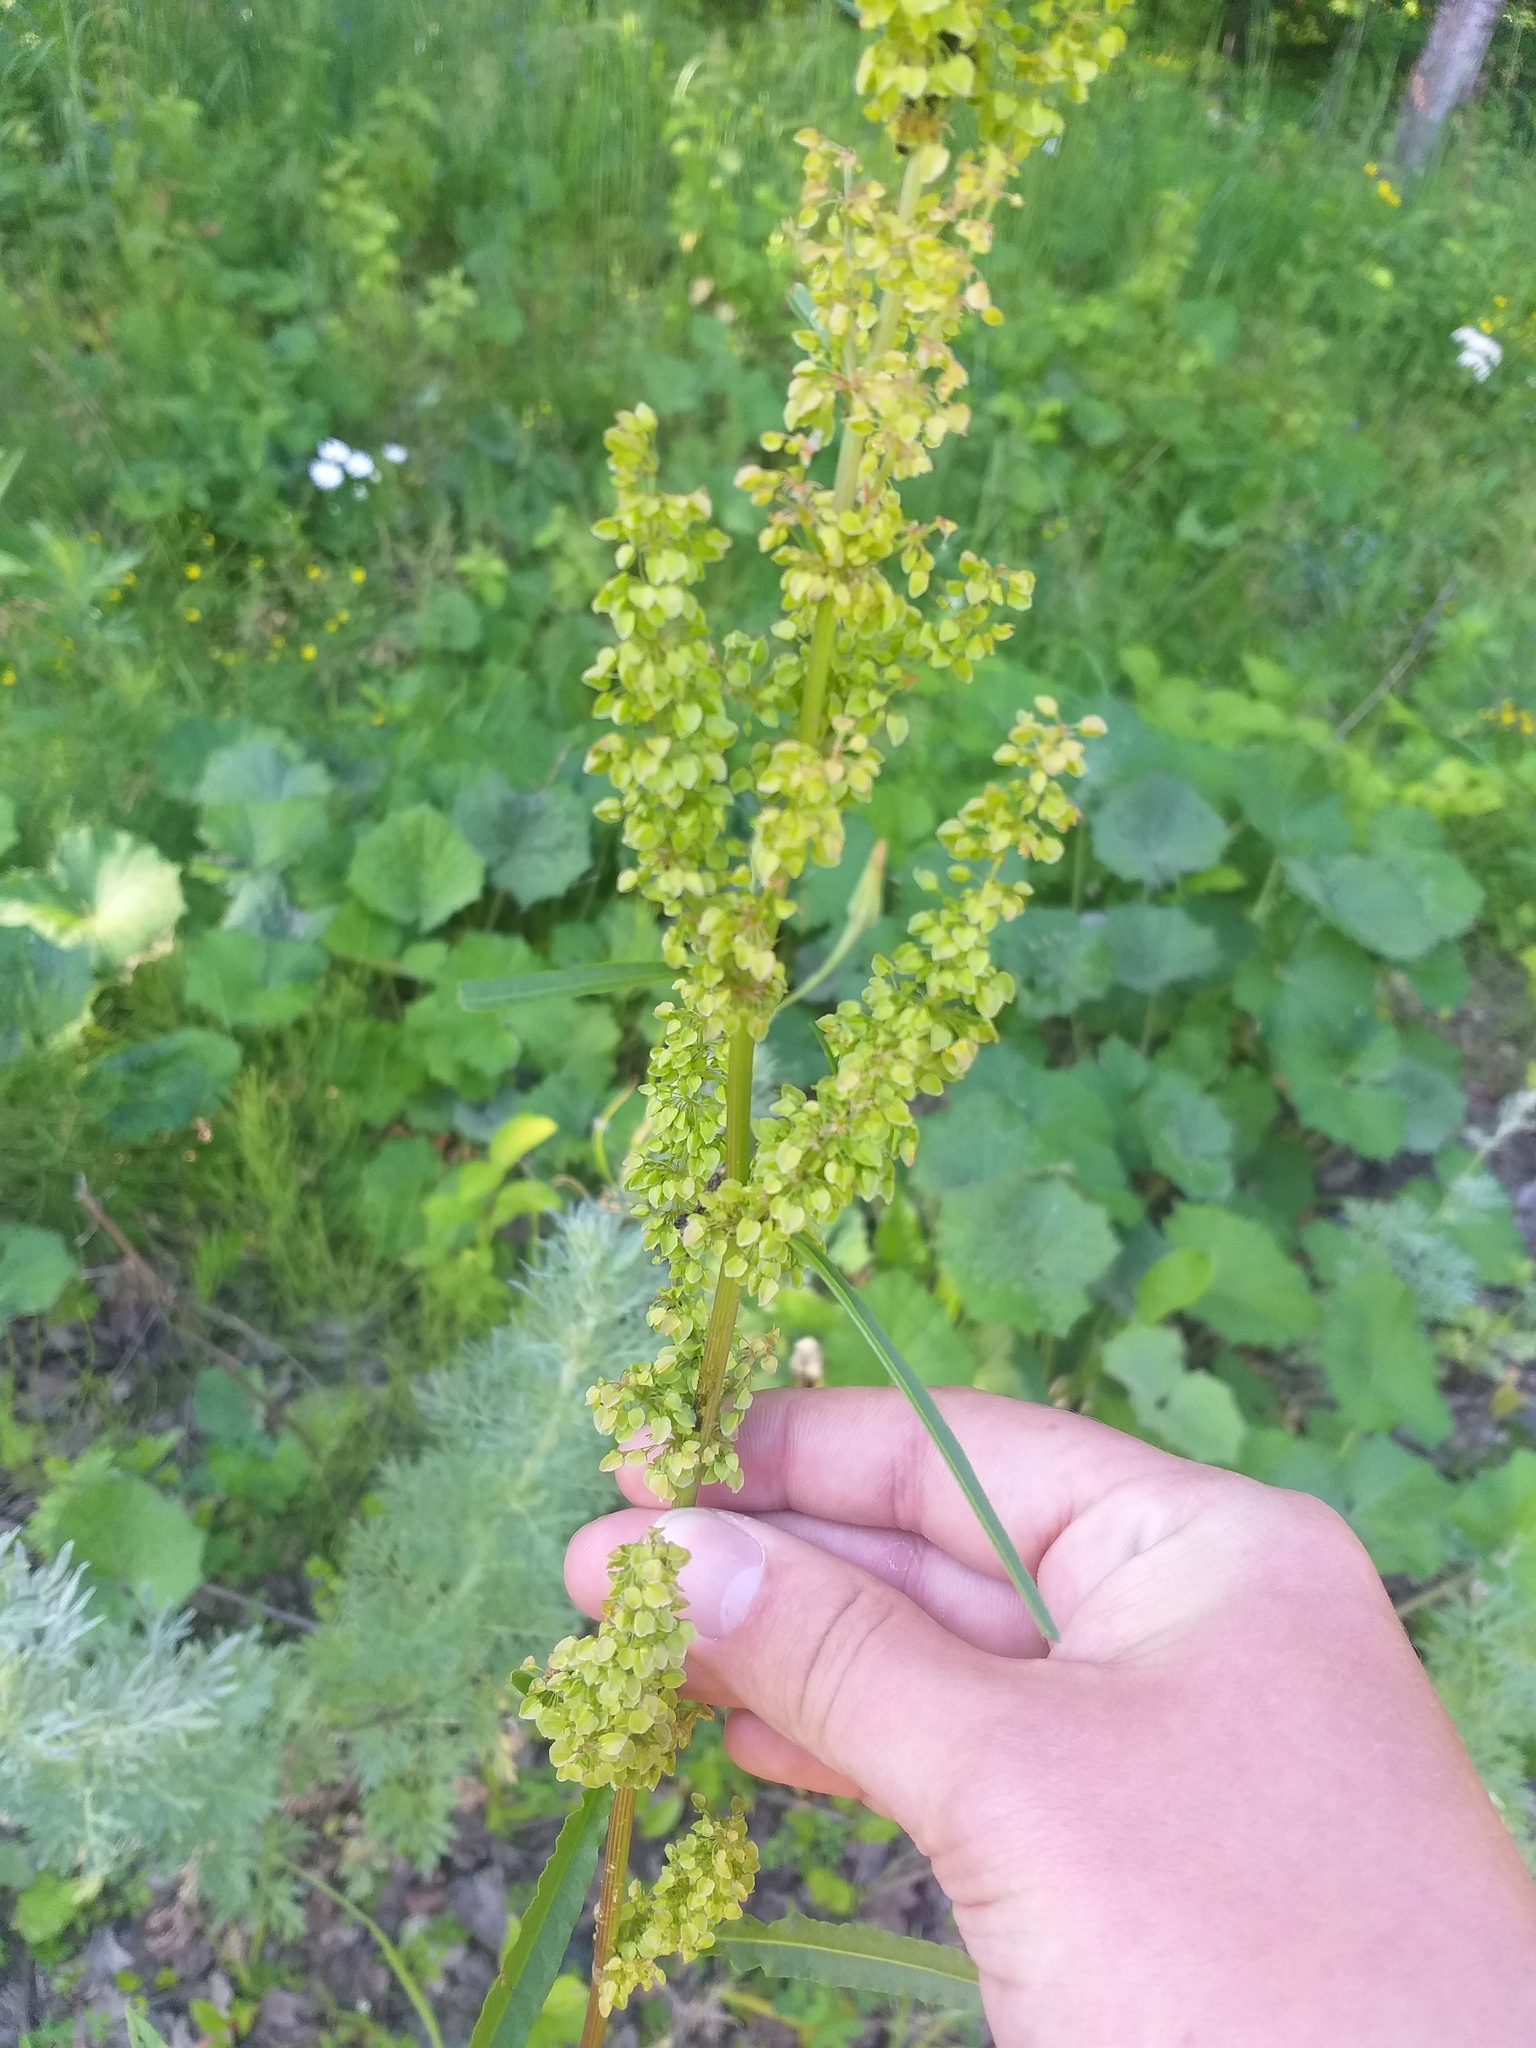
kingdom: Plantae
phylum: Tracheophyta
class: Magnoliopsida
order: Caryophyllales
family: Polygonaceae
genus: Rumex
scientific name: Rumex pseudonatronatus
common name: Field dock
